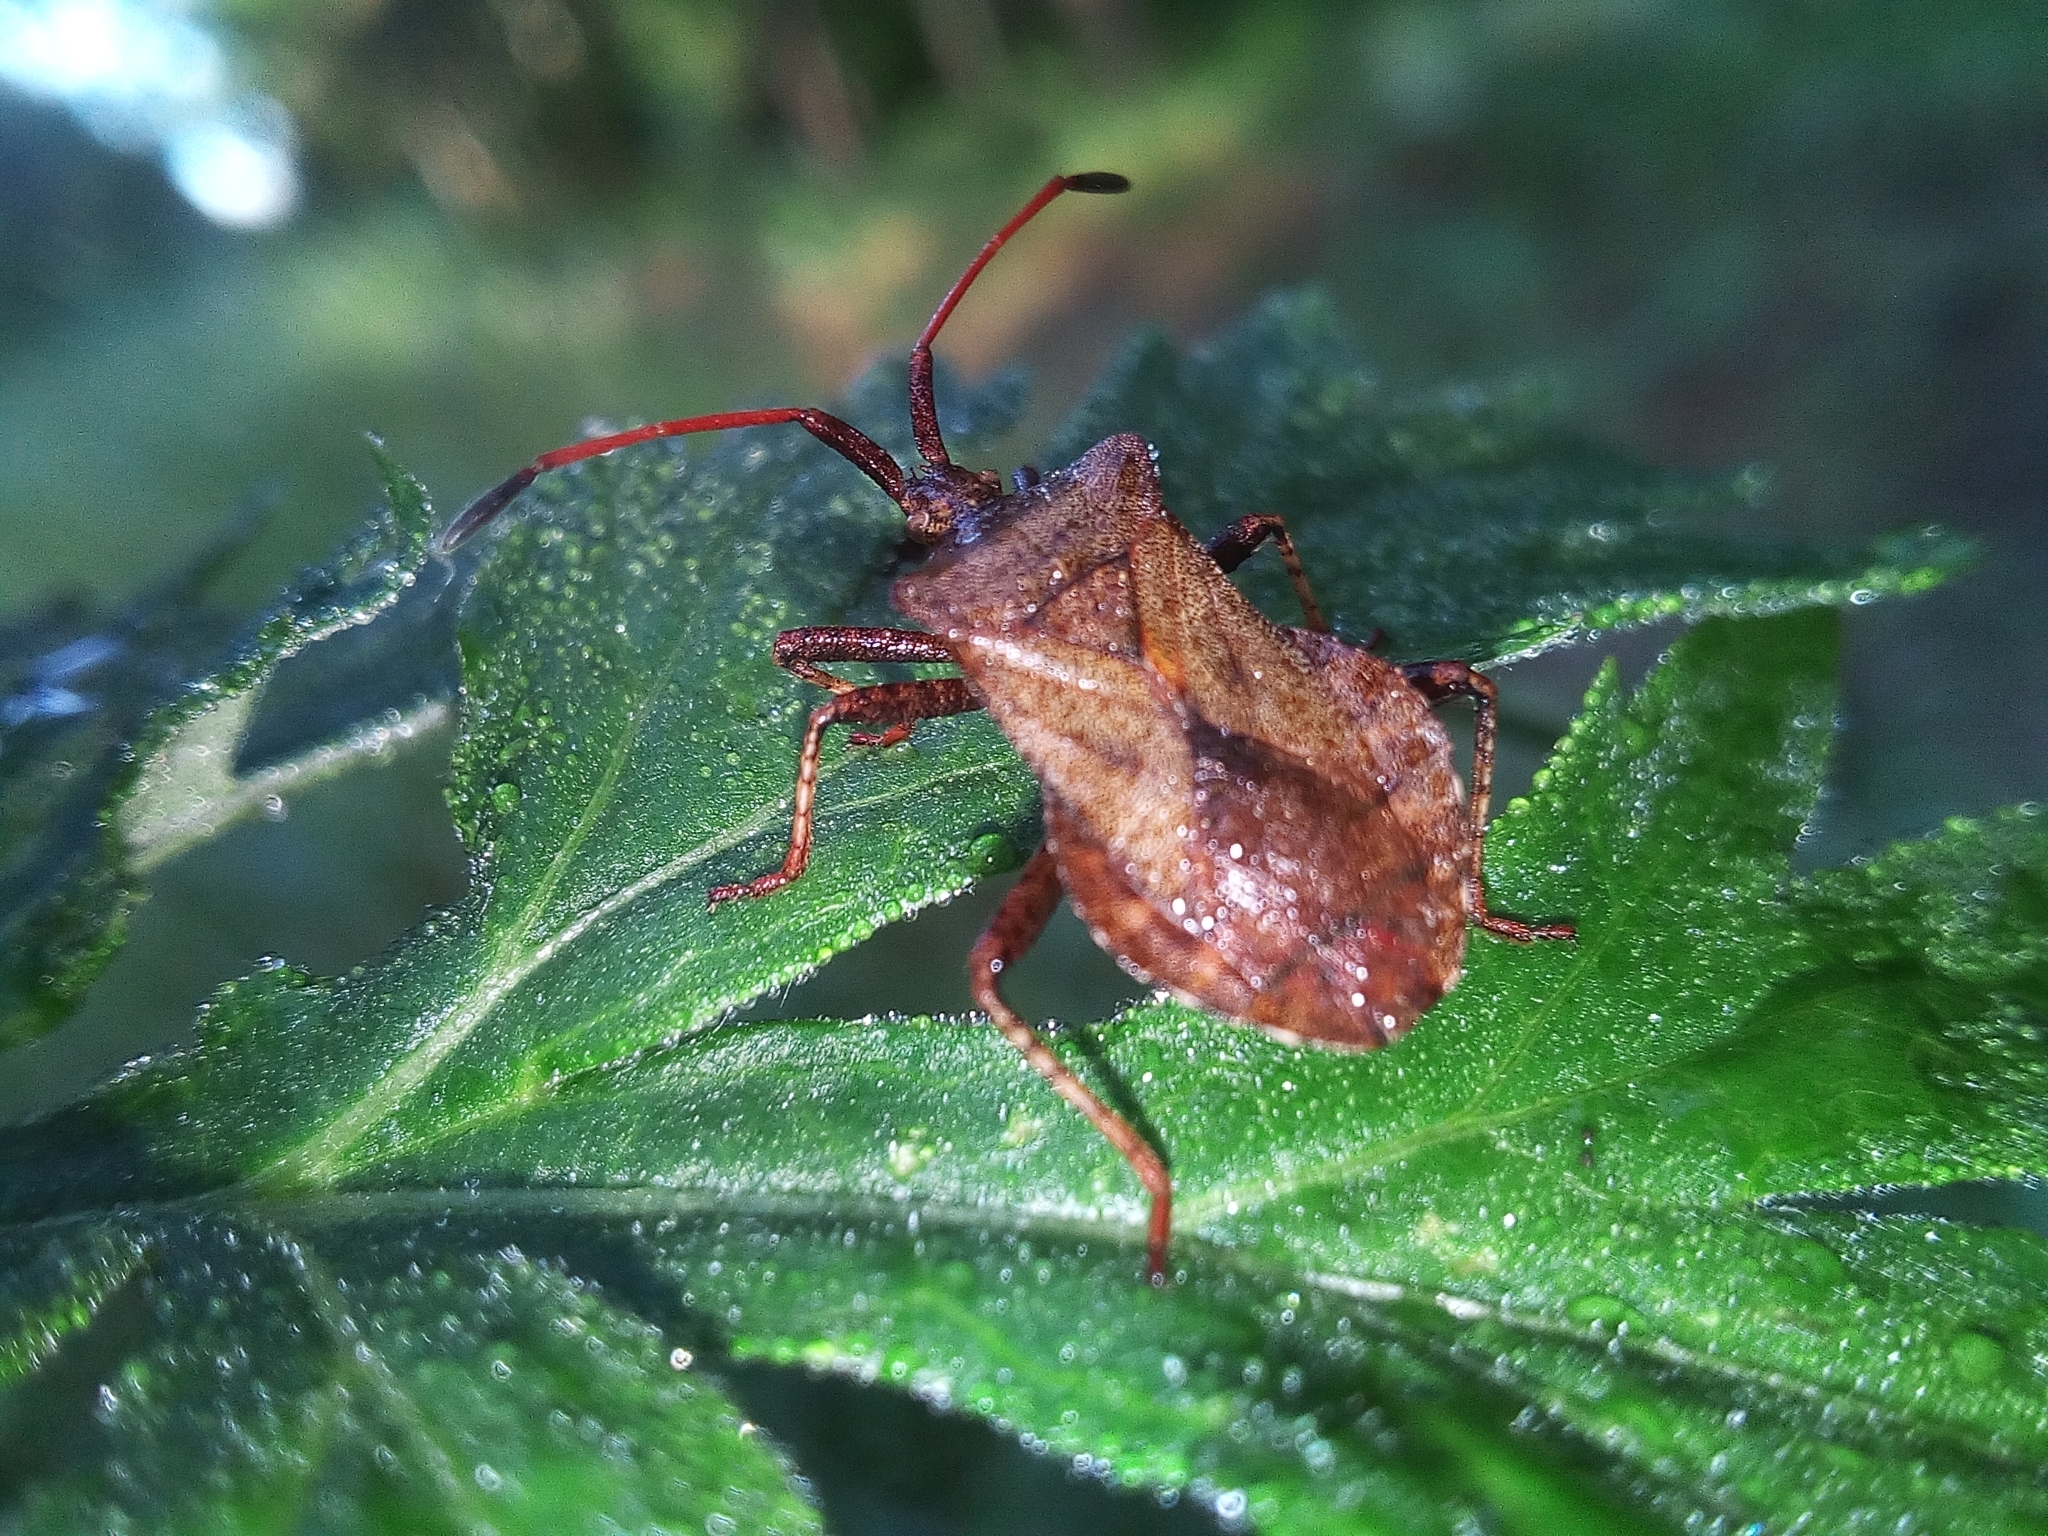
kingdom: Animalia
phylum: Arthropoda
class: Insecta
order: Hemiptera
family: Coreidae
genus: Coreus
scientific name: Coreus marginatus
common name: Dock bug
